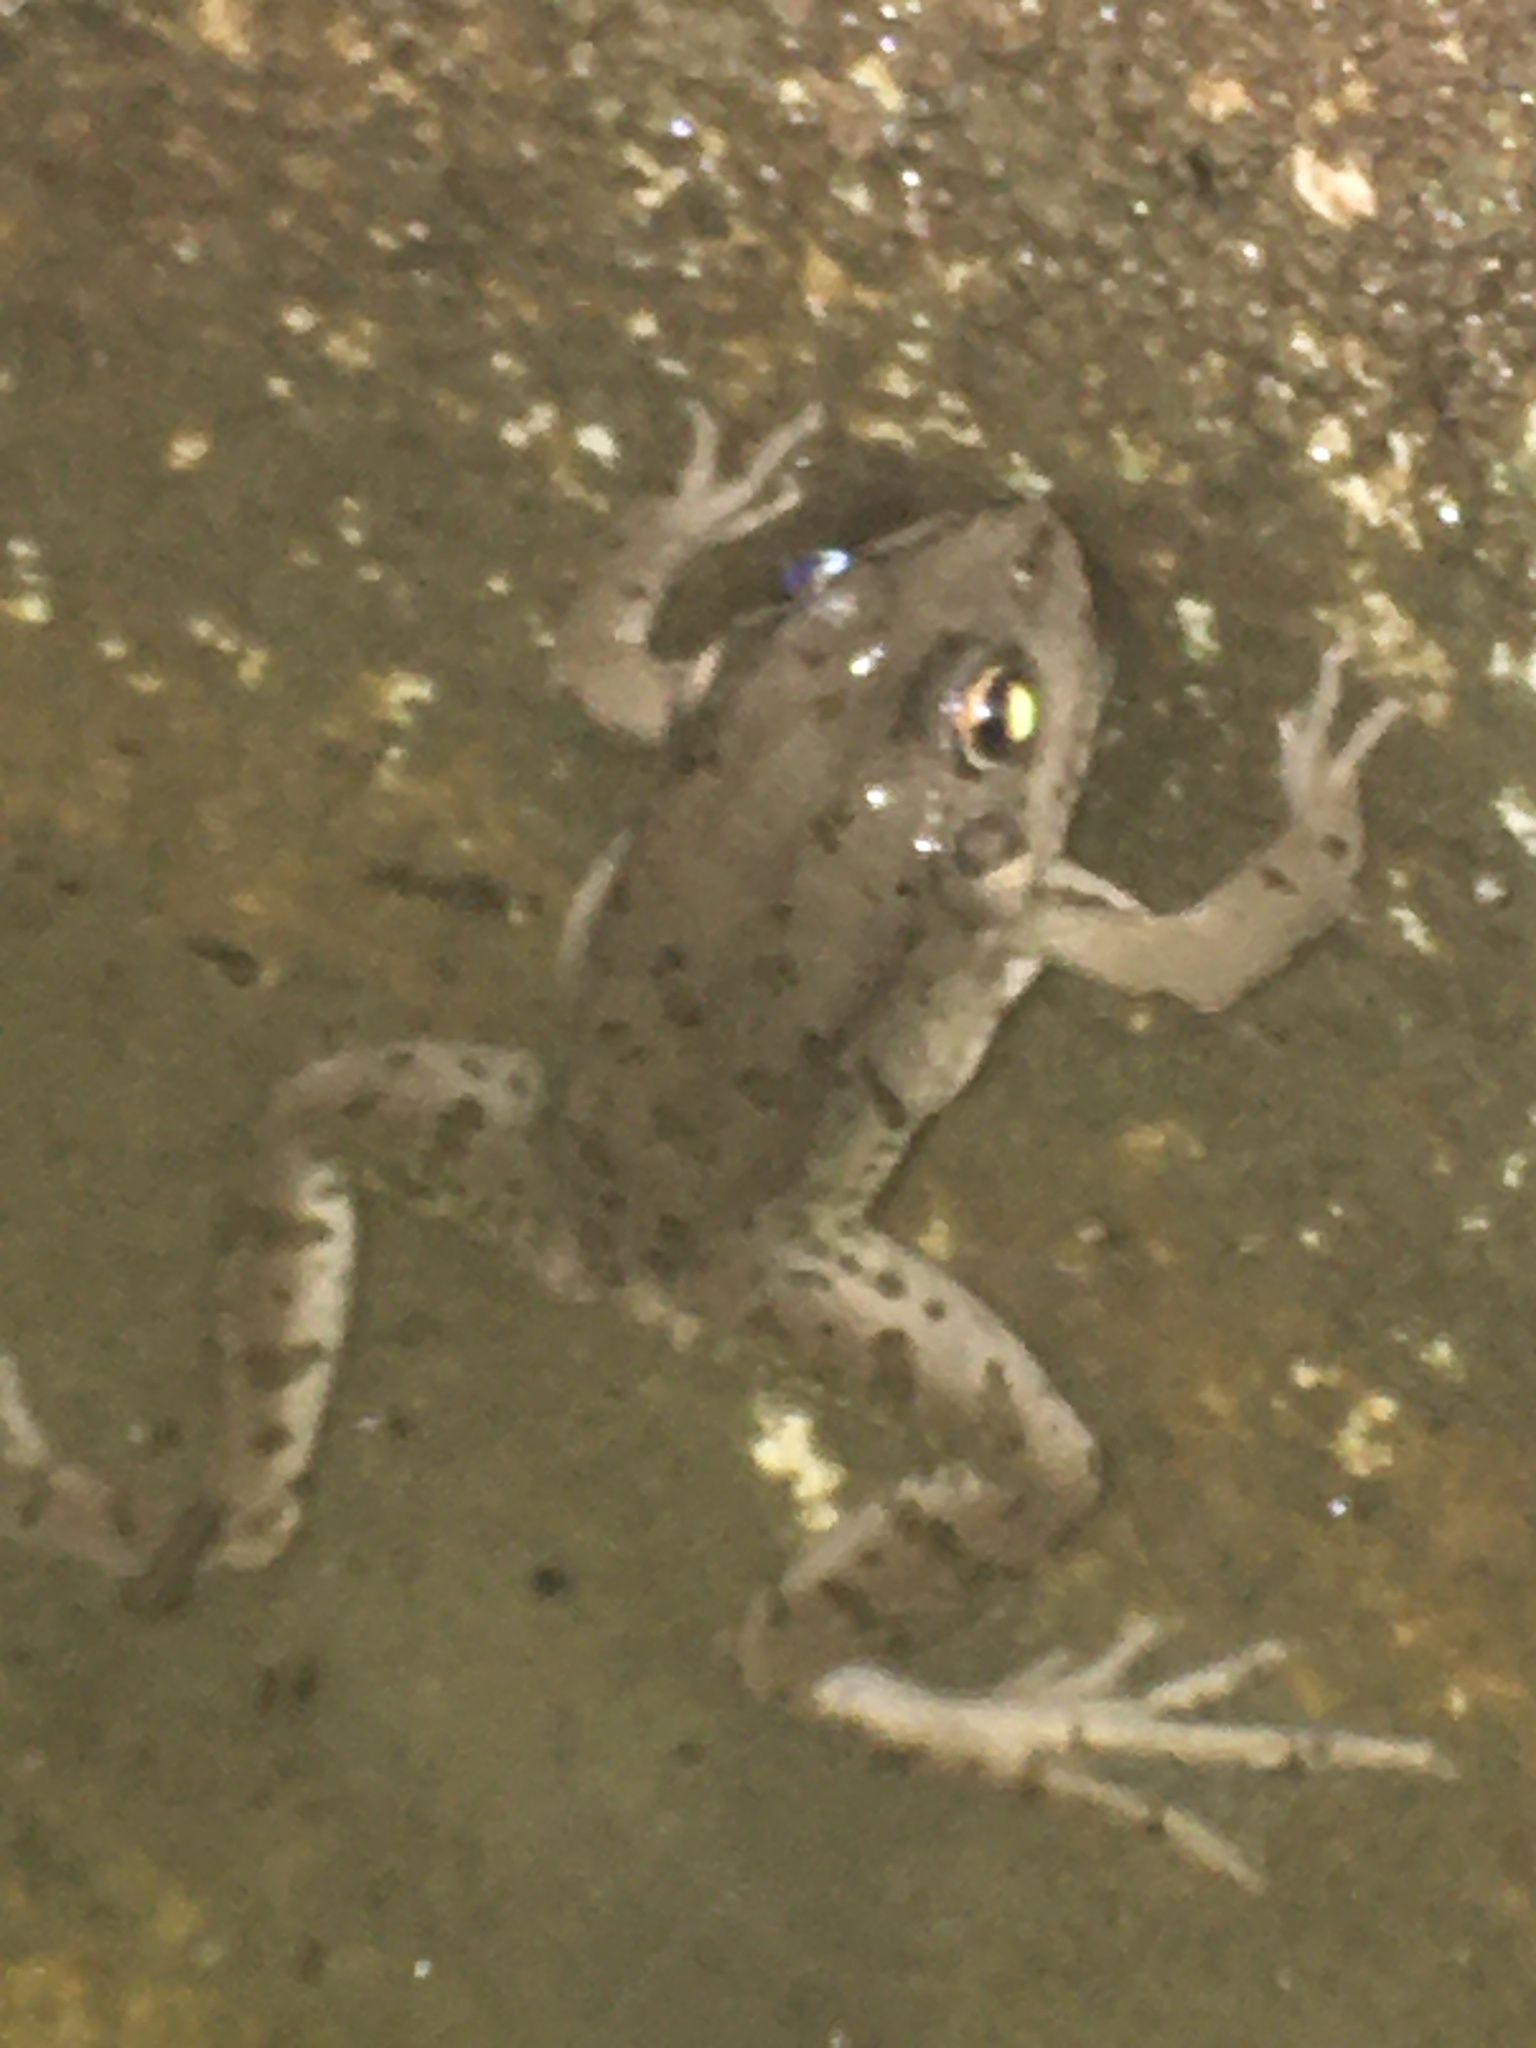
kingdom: Animalia
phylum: Chordata
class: Amphibia
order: Anura
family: Ranidae
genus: Pelophylax
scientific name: Pelophylax ridibundus
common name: Marsh frog
